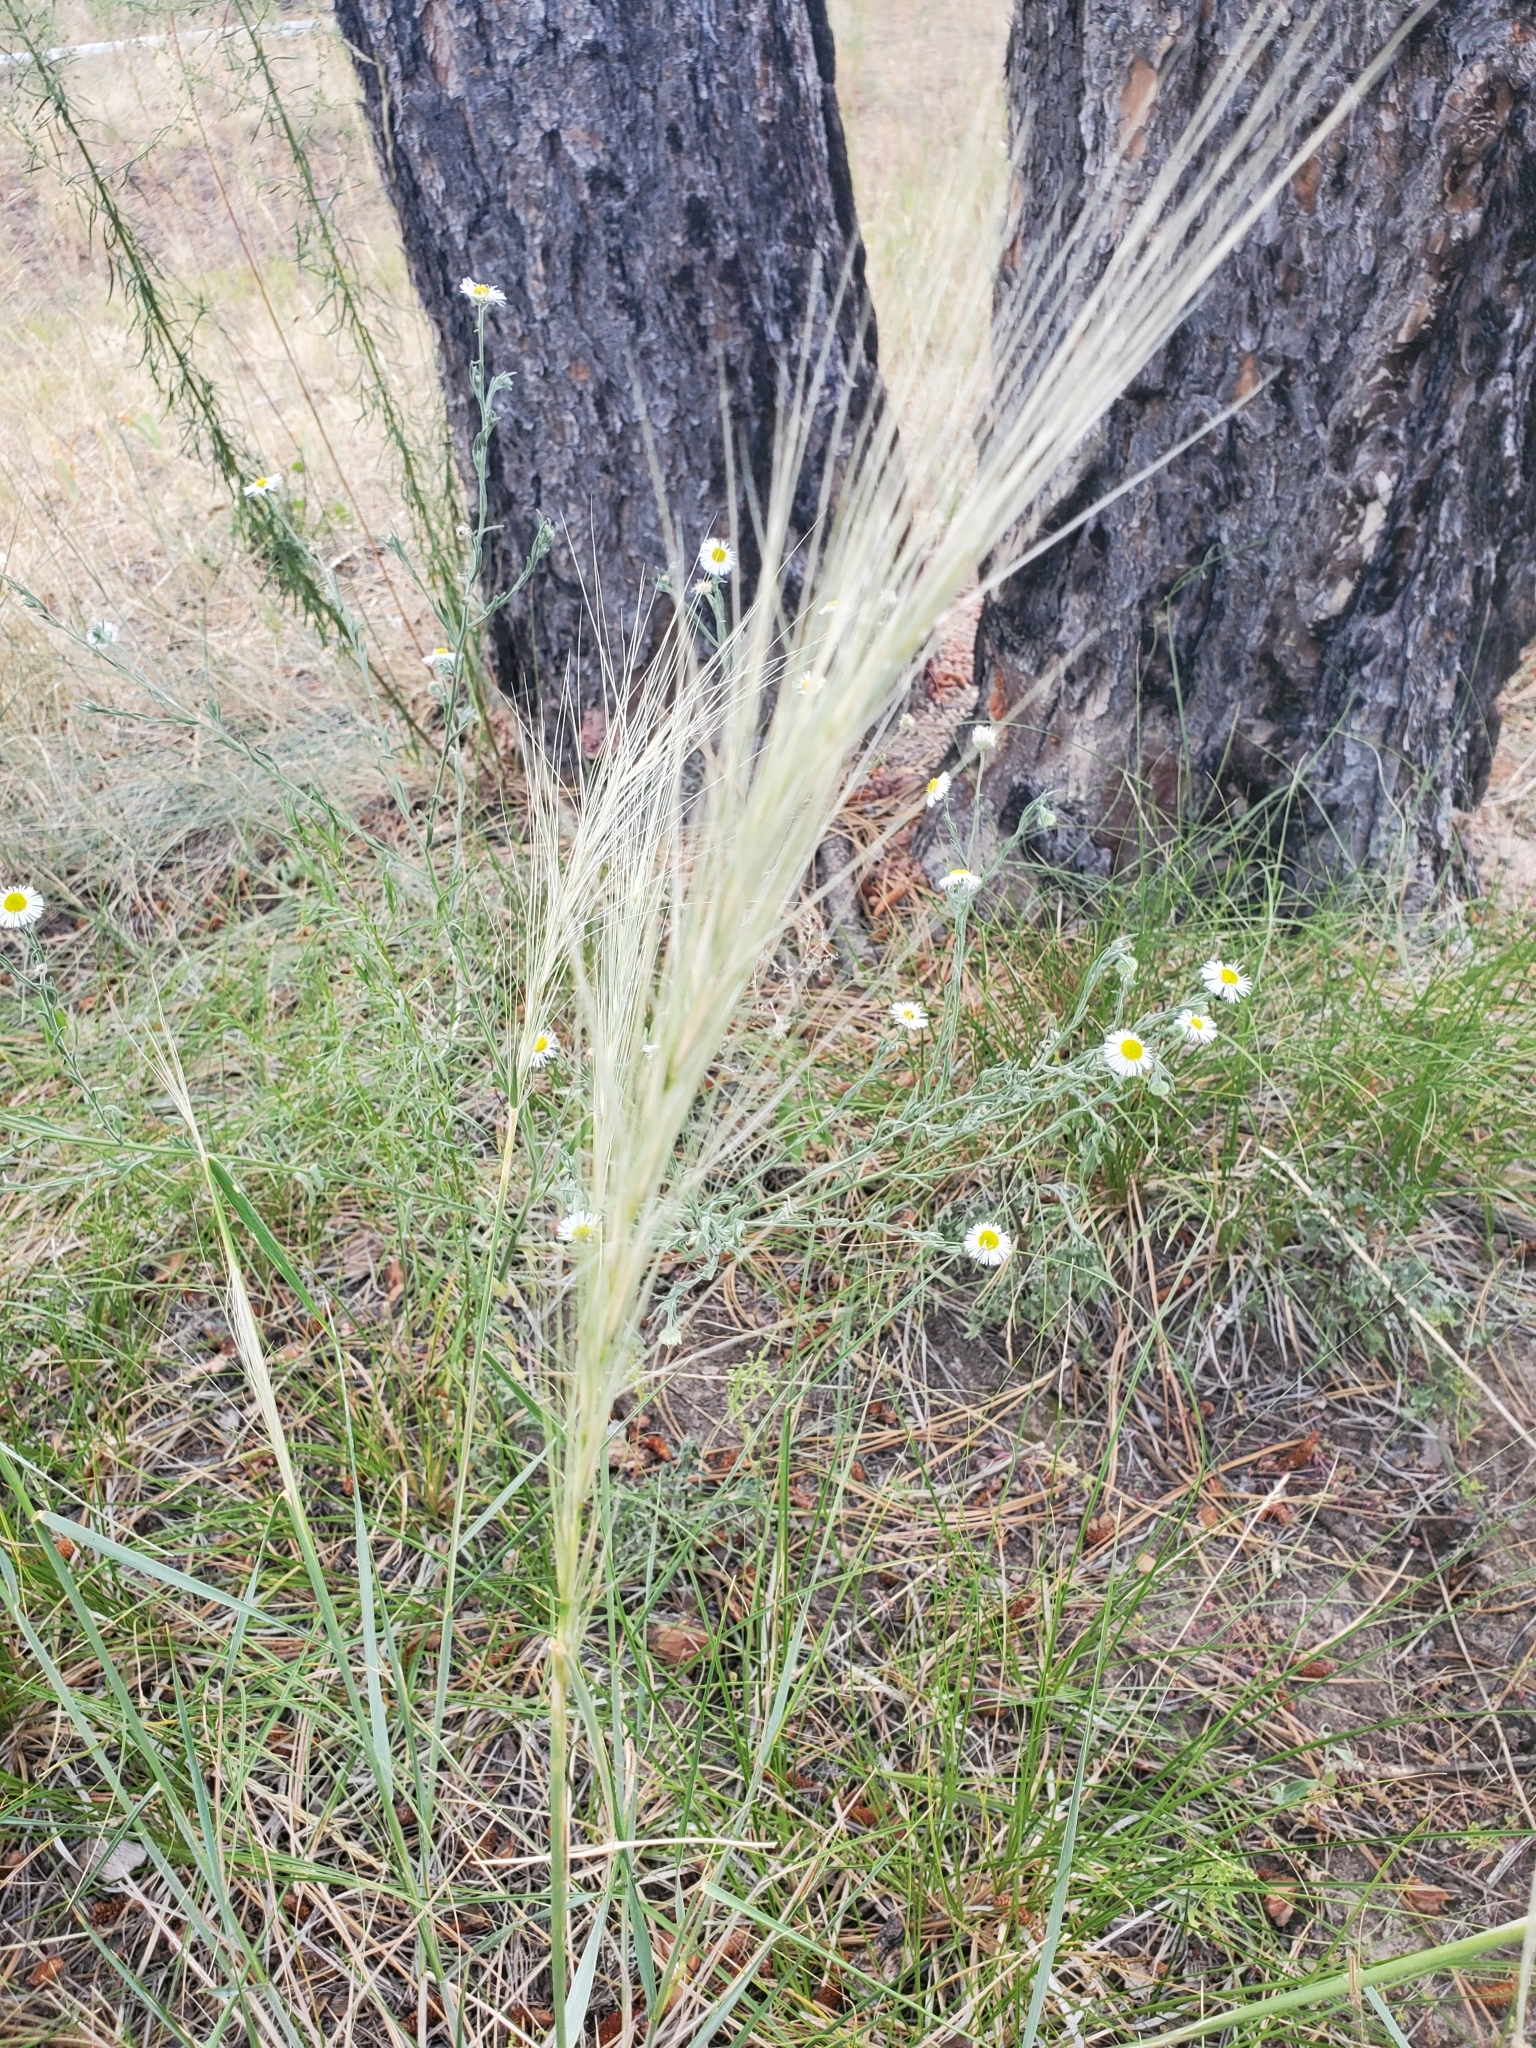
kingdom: Plantae
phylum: Tracheophyta
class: Liliopsida
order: Poales
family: Poaceae
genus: Elymus
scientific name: Elymus elymoides
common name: Bottlebrush squirreltail
